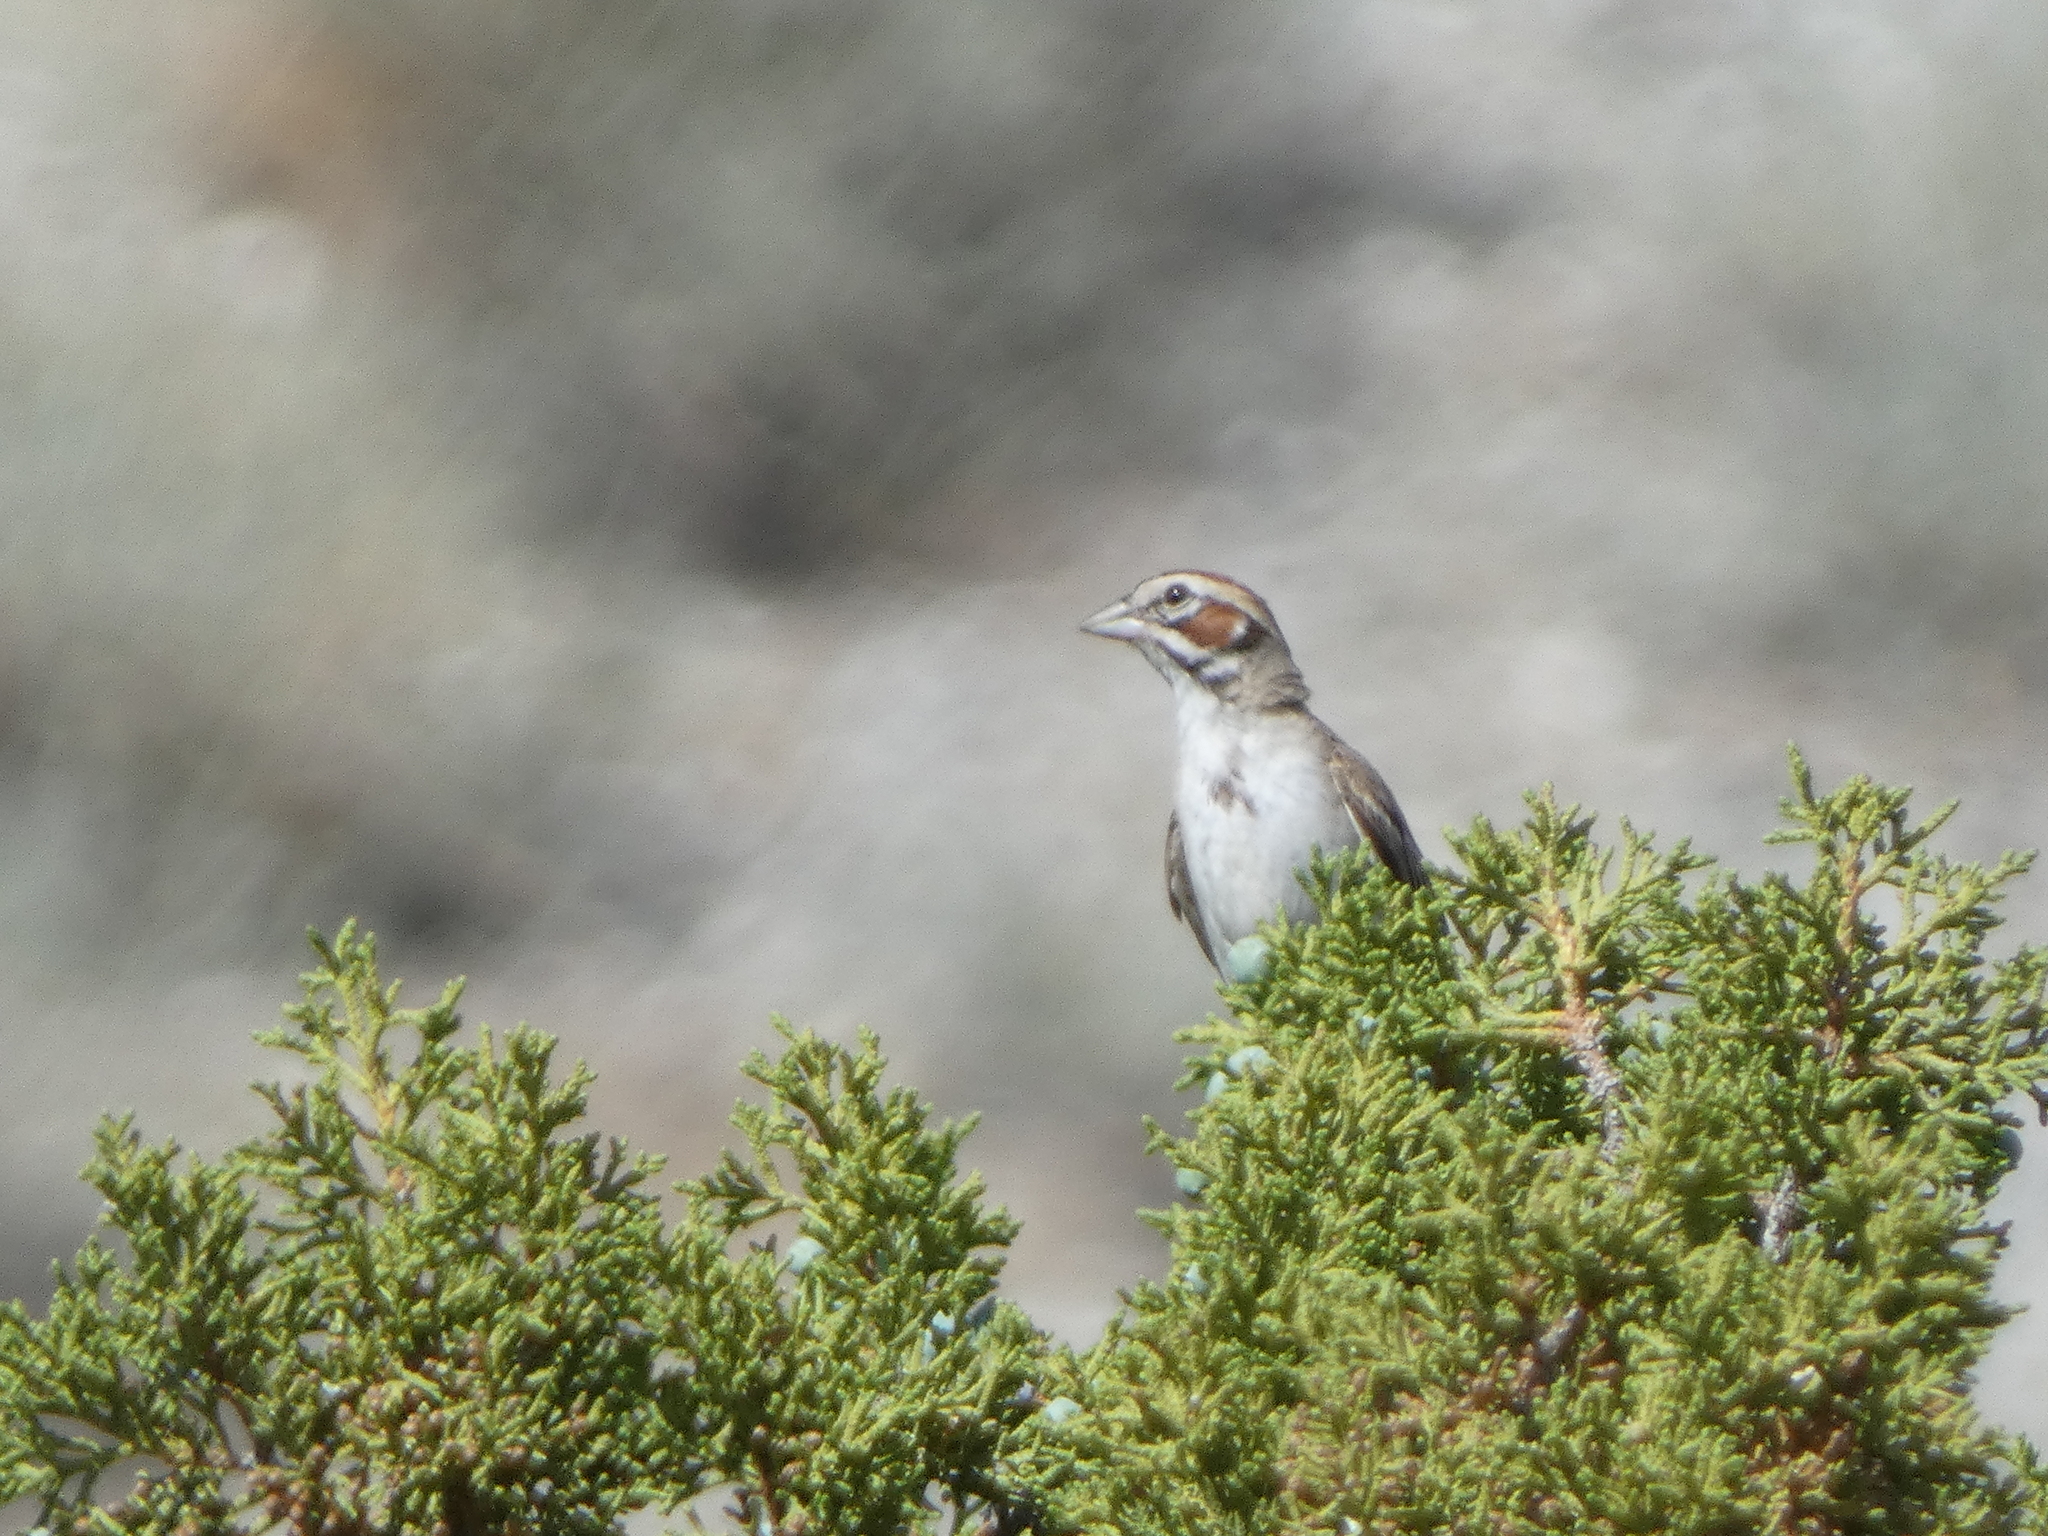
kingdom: Animalia
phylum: Chordata
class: Aves
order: Passeriformes
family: Passerellidae
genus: Chondestes
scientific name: Chondestes grammacus
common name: Lark sparrow
